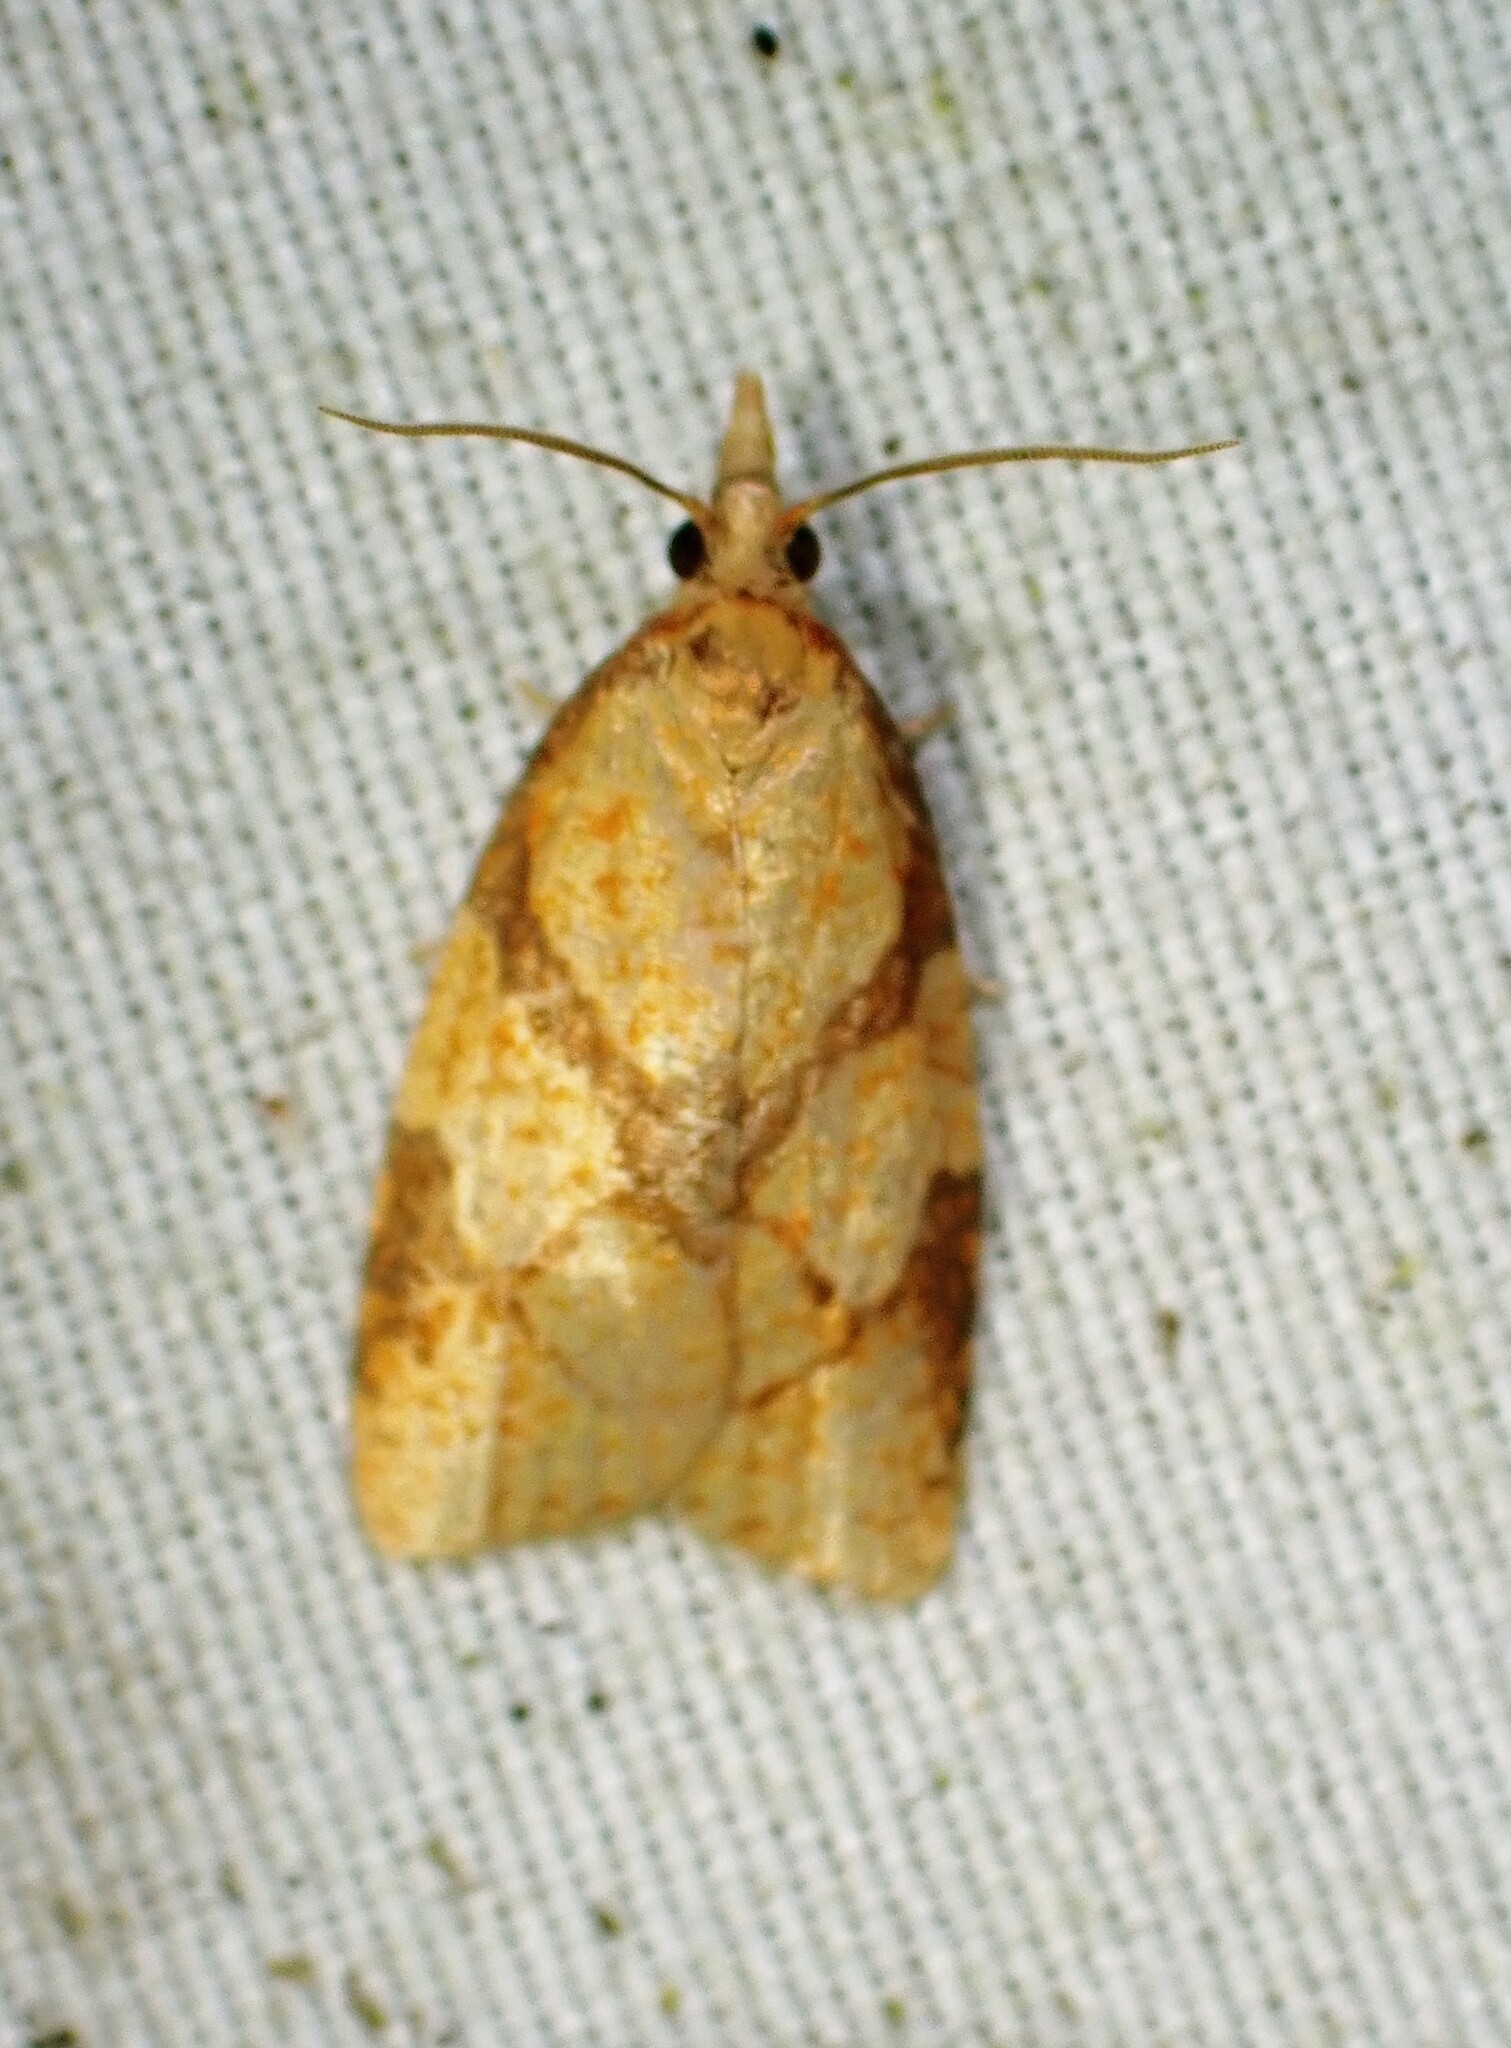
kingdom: Animalia
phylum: Arthropoda
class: Insecta
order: Lepidoptera
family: Tortricidae
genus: Cenopis
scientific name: Cenopis reticulatana
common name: Reticulated fruitworm moth
